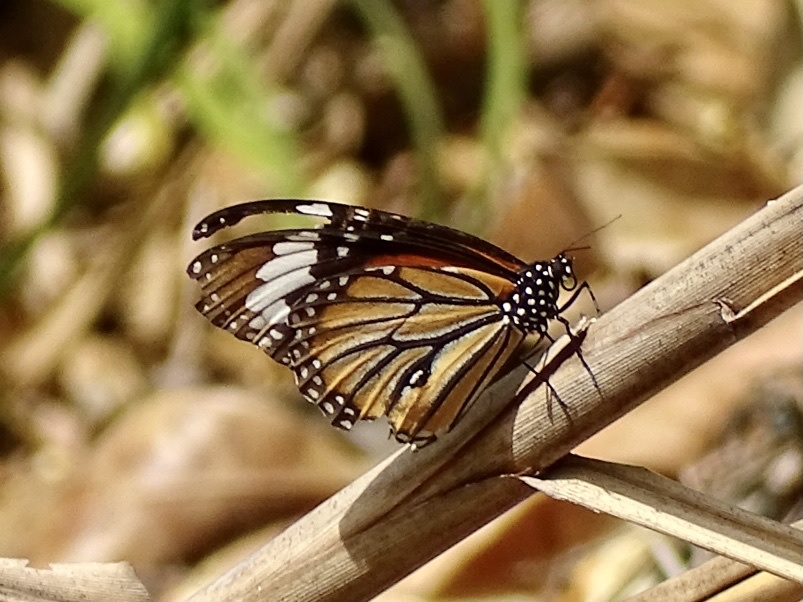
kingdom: Animalia
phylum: Arthropoda
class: Insecta
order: Lepidoptera
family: Nymphalidae
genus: Danaus
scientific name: Danaus genutia
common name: Common tiger butterfly
